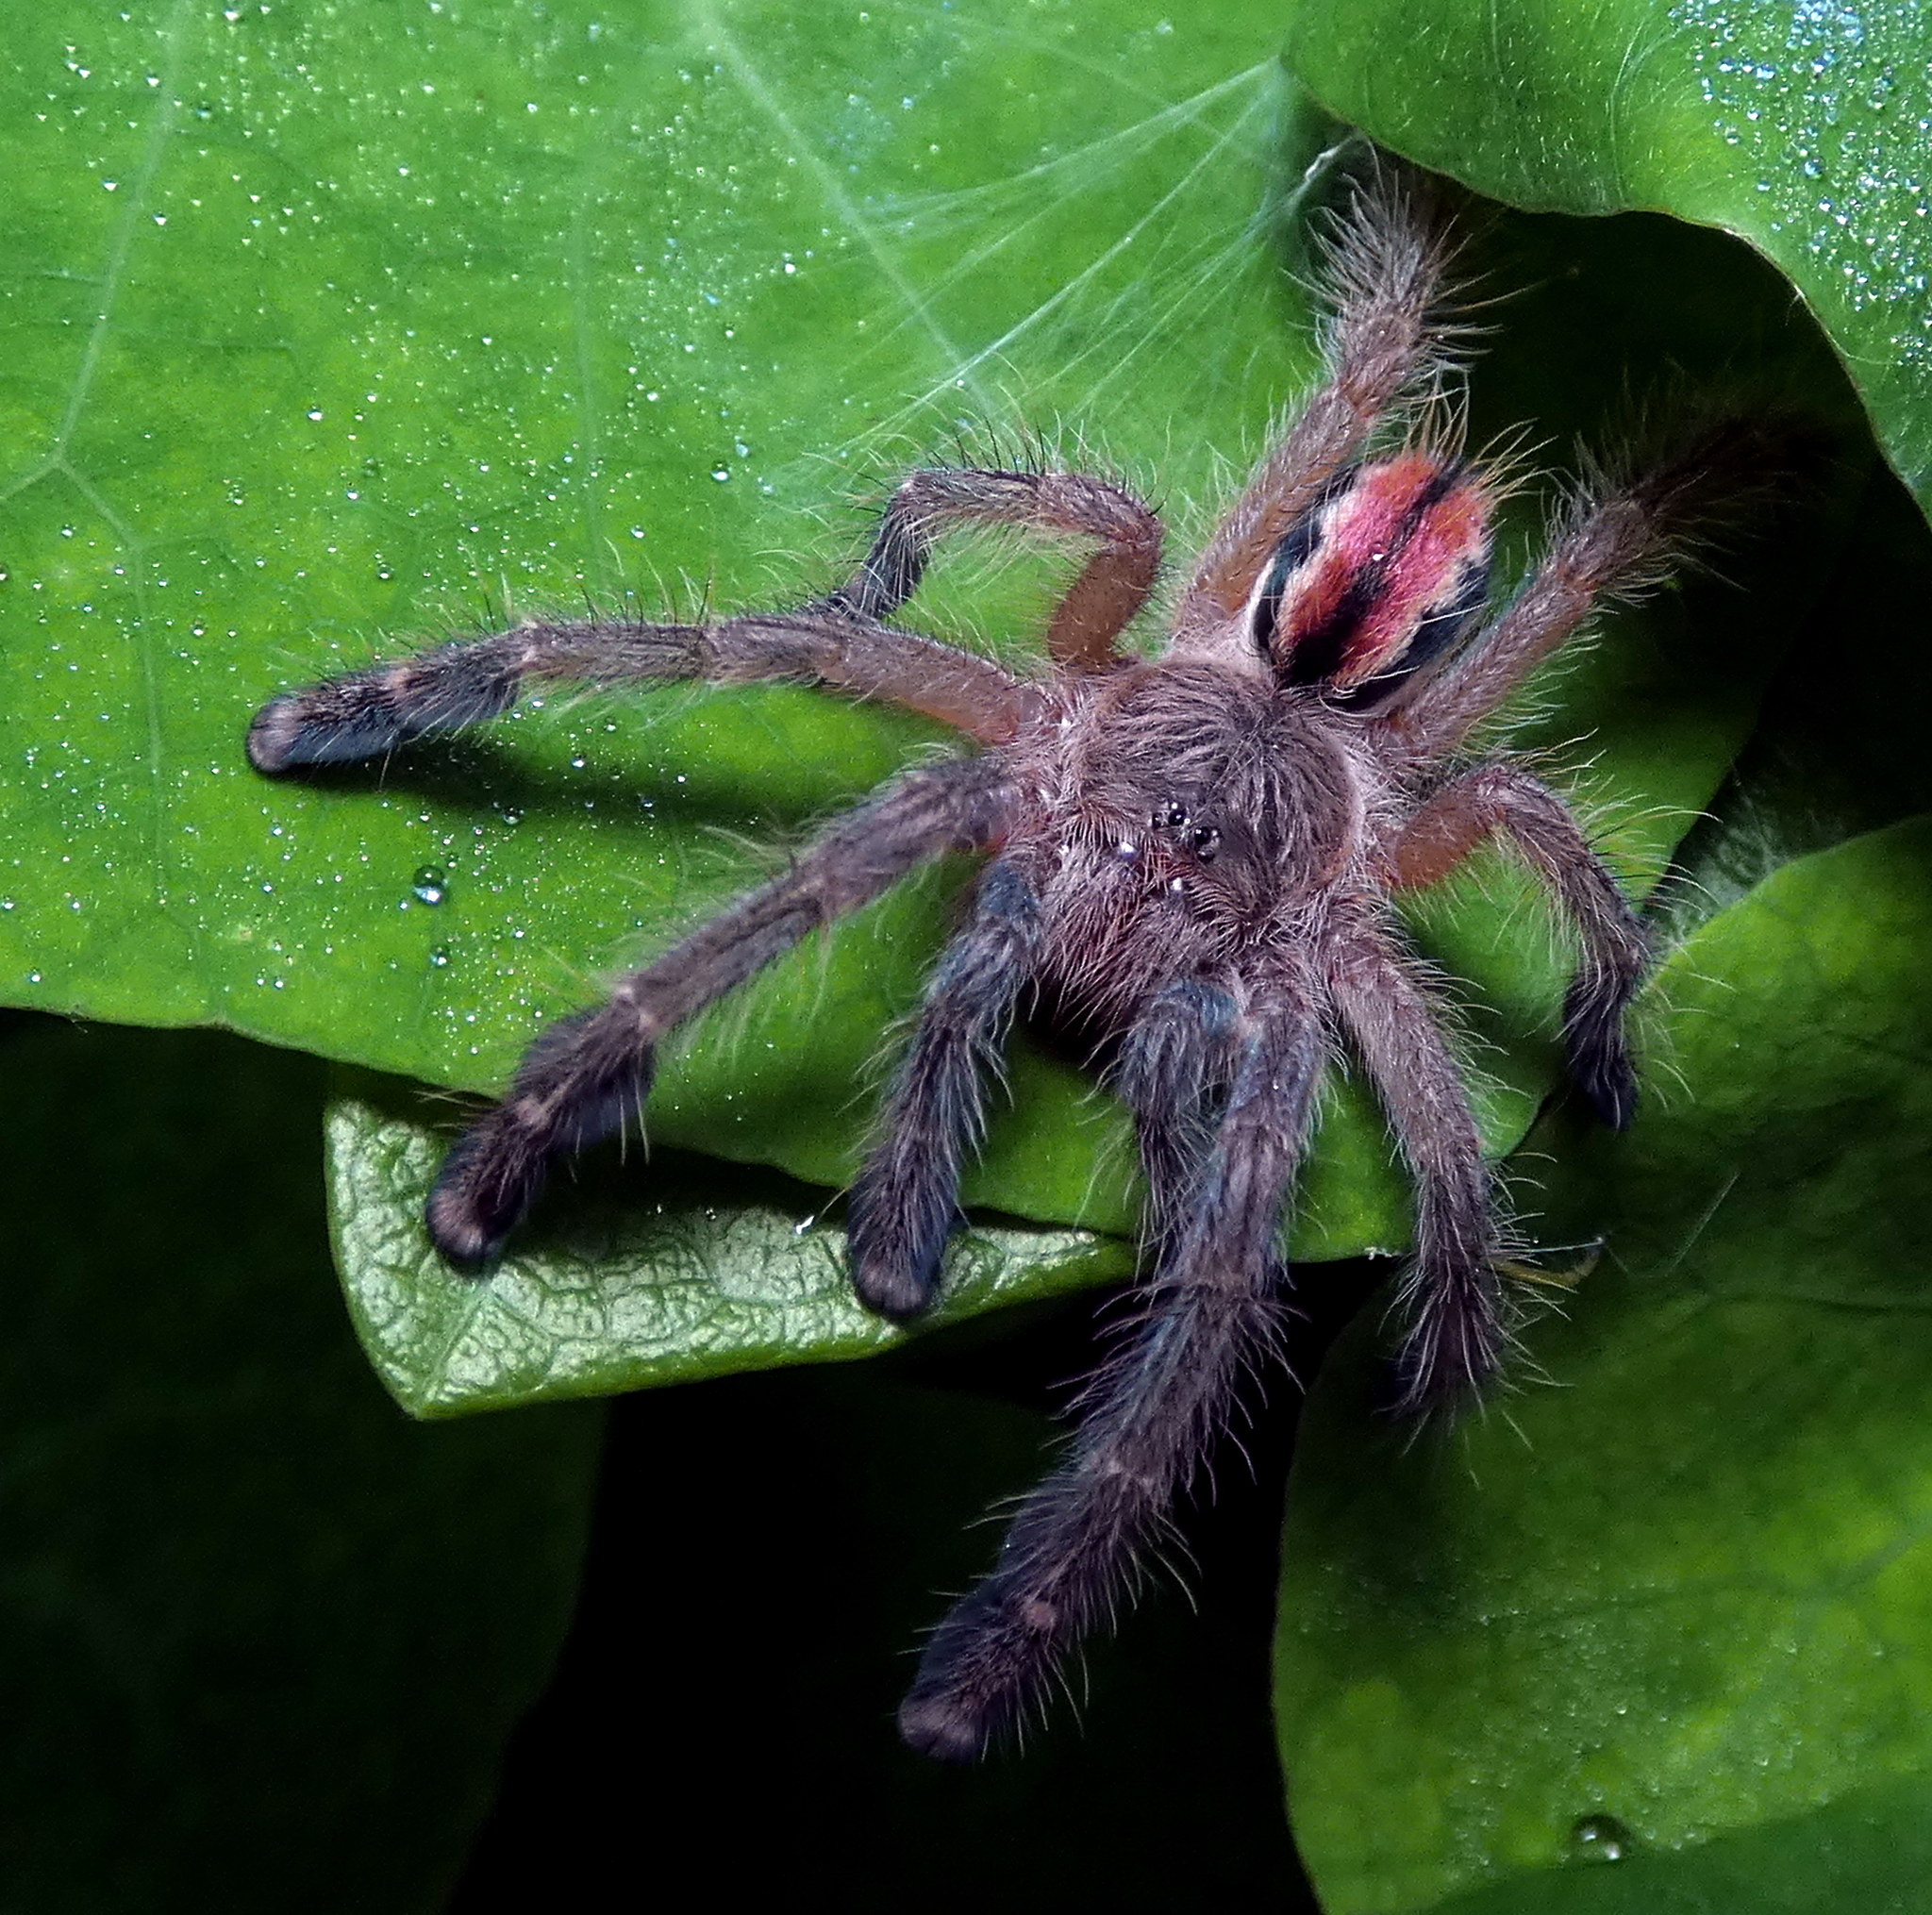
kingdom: Animalia
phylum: Arthropoda
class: Arachnida
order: Araneae
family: Theraphosidae
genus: Iridopelma
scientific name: Iridopelma hirsutum
